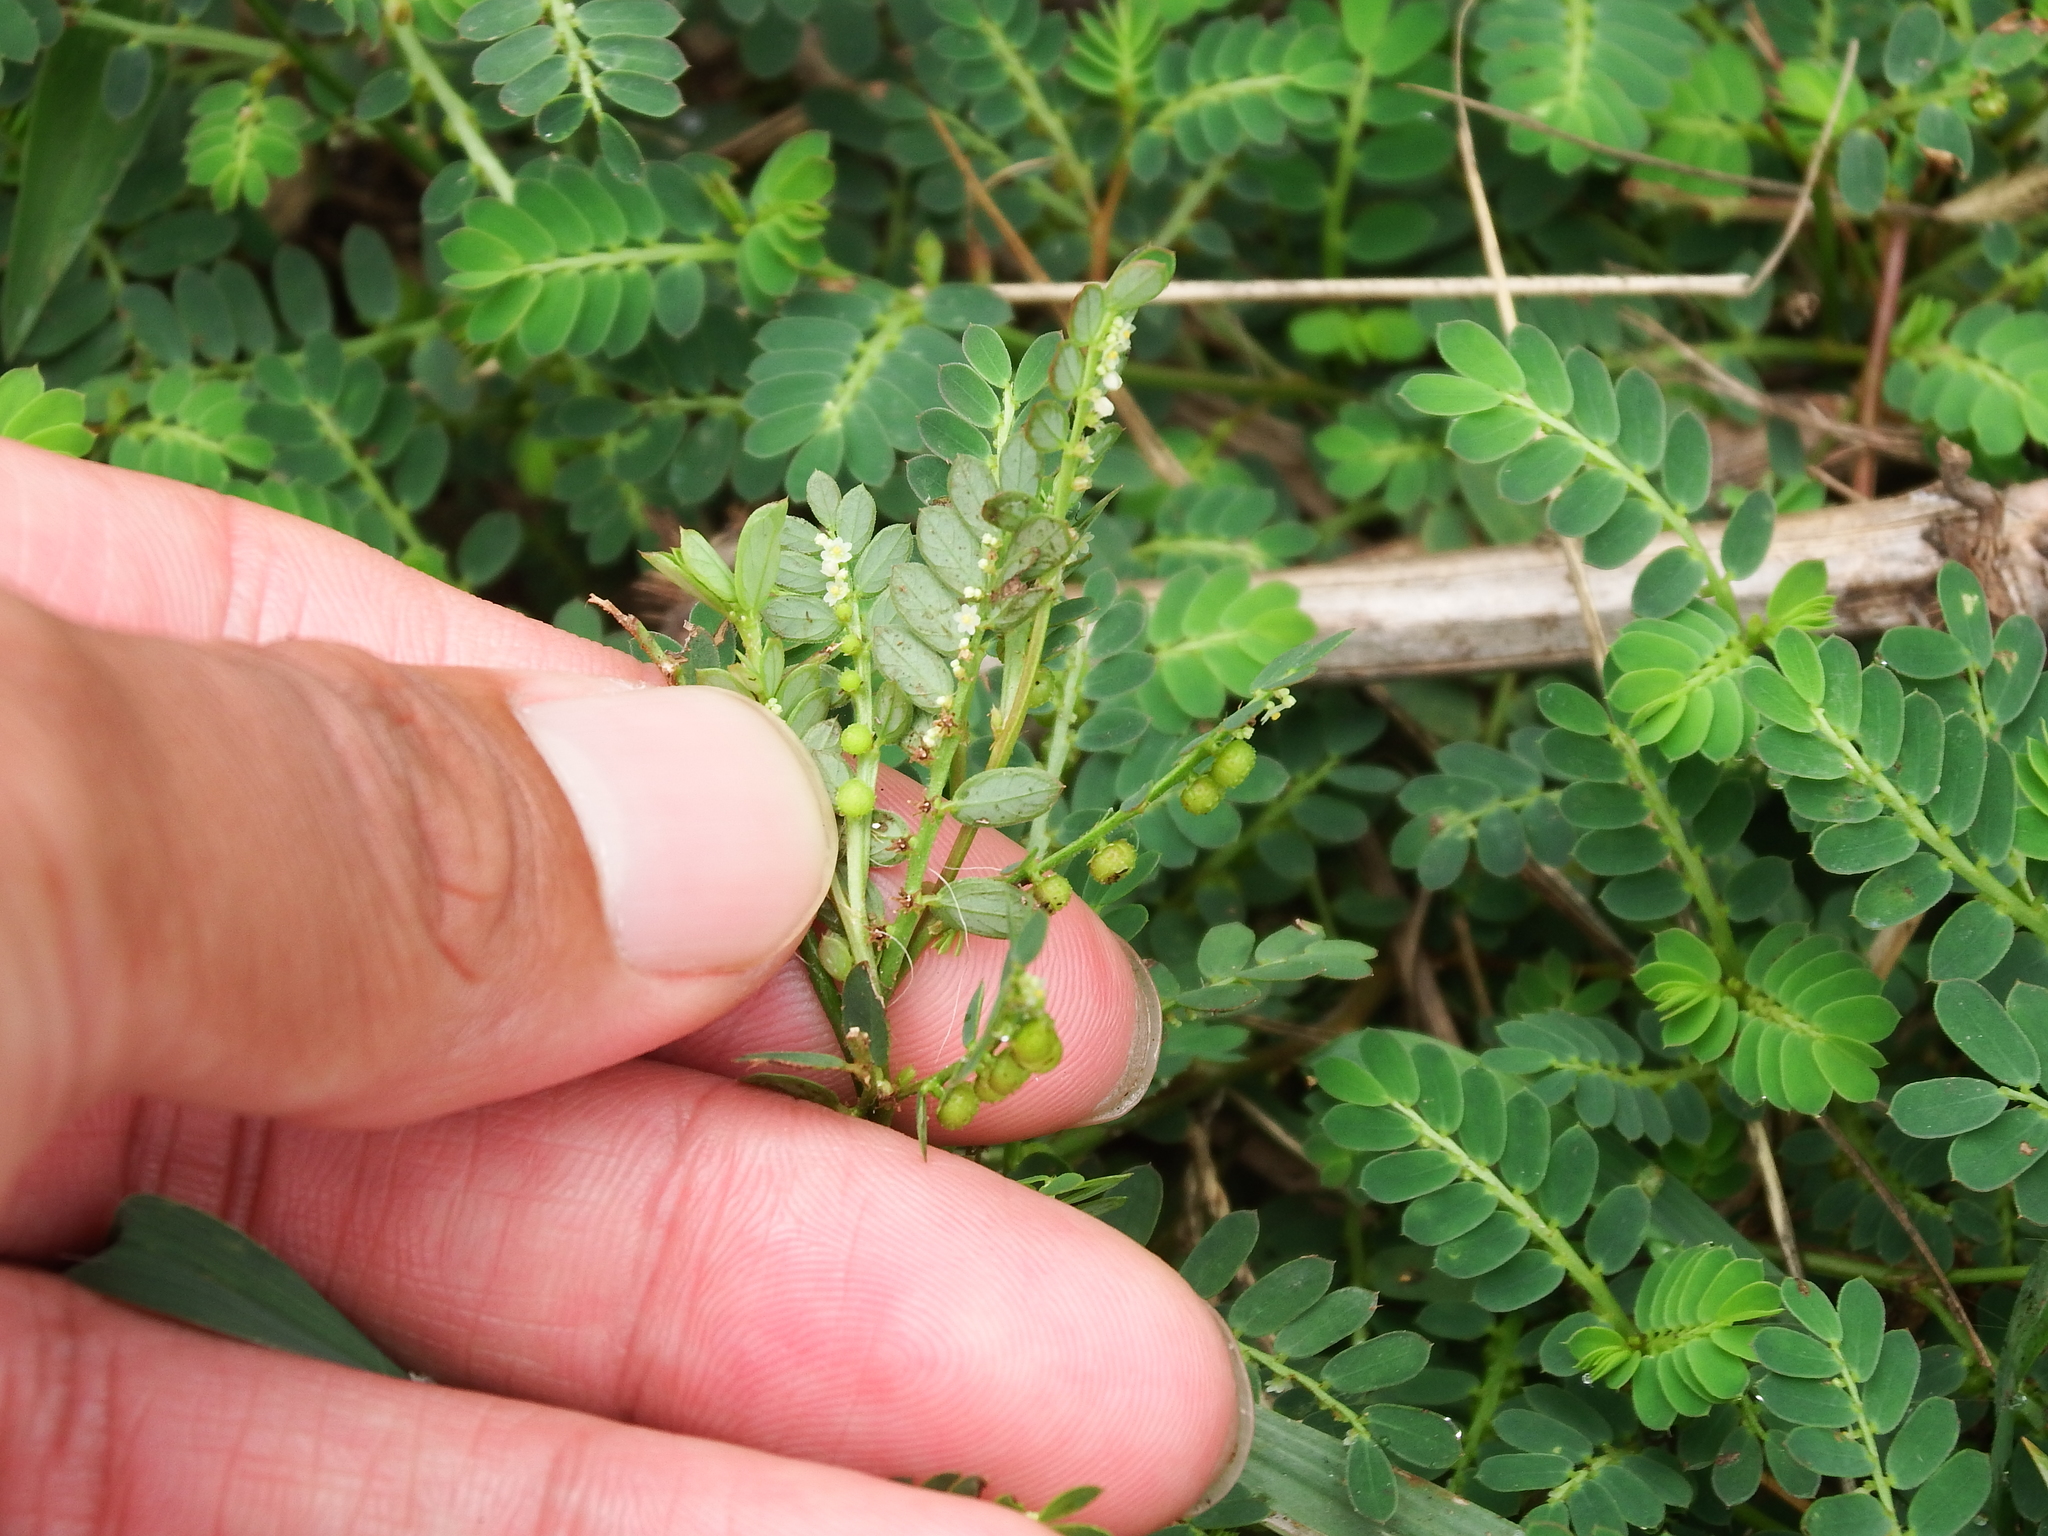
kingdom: Plantae
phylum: Tracheophyta
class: Magnoliopsida
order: Malpighiales
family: Phyllanthaceae
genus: Phyllanthus
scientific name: Phyllanthus urinaria
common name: Chamber bitter
